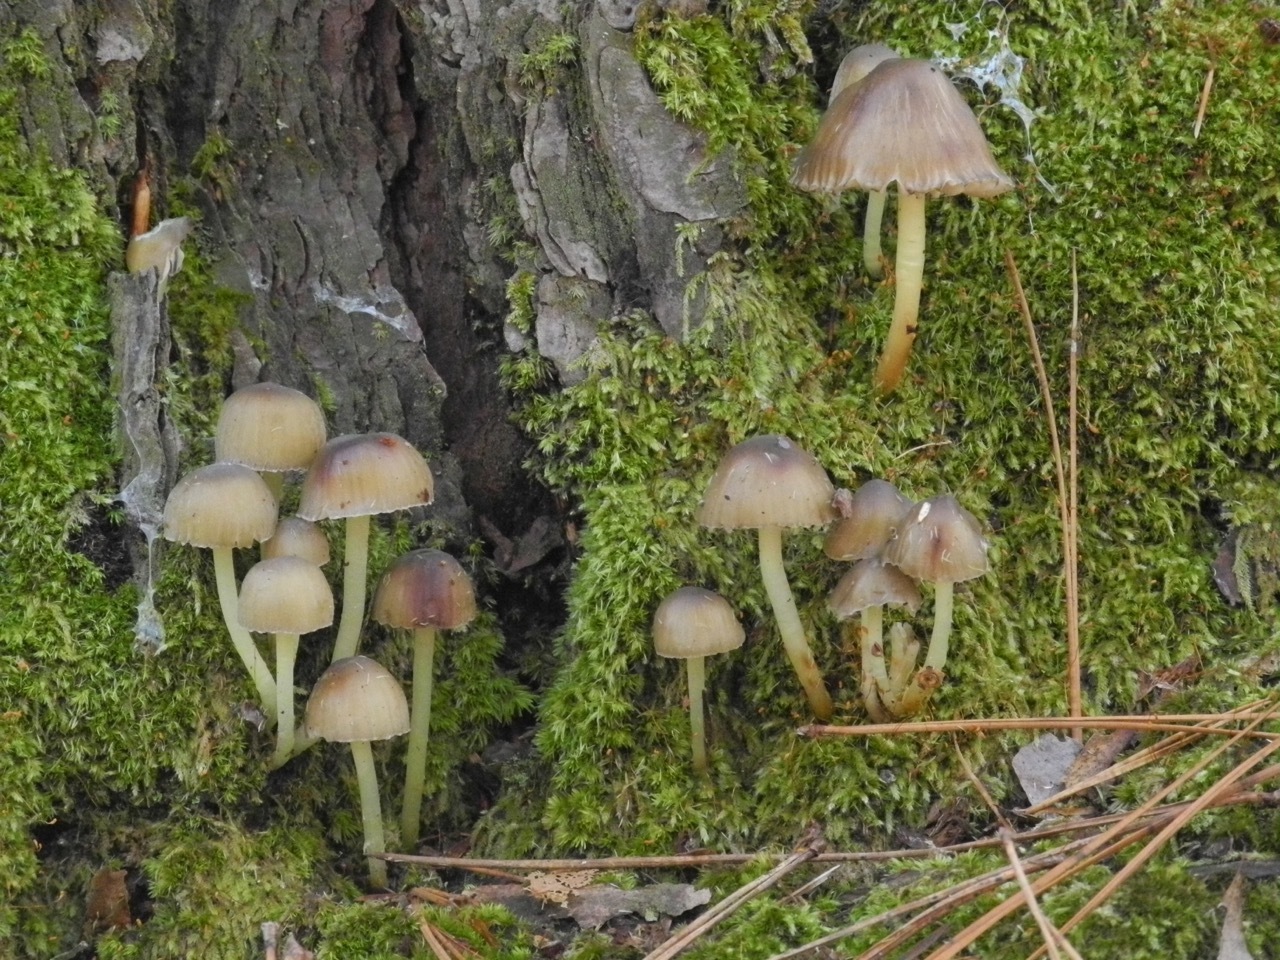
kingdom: Fungi
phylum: Basidiomycota
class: Agaricomycetes
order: Agaricales
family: Mycenaceae
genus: Mycena
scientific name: Mycena stipata
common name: Clustered pine bonnet
